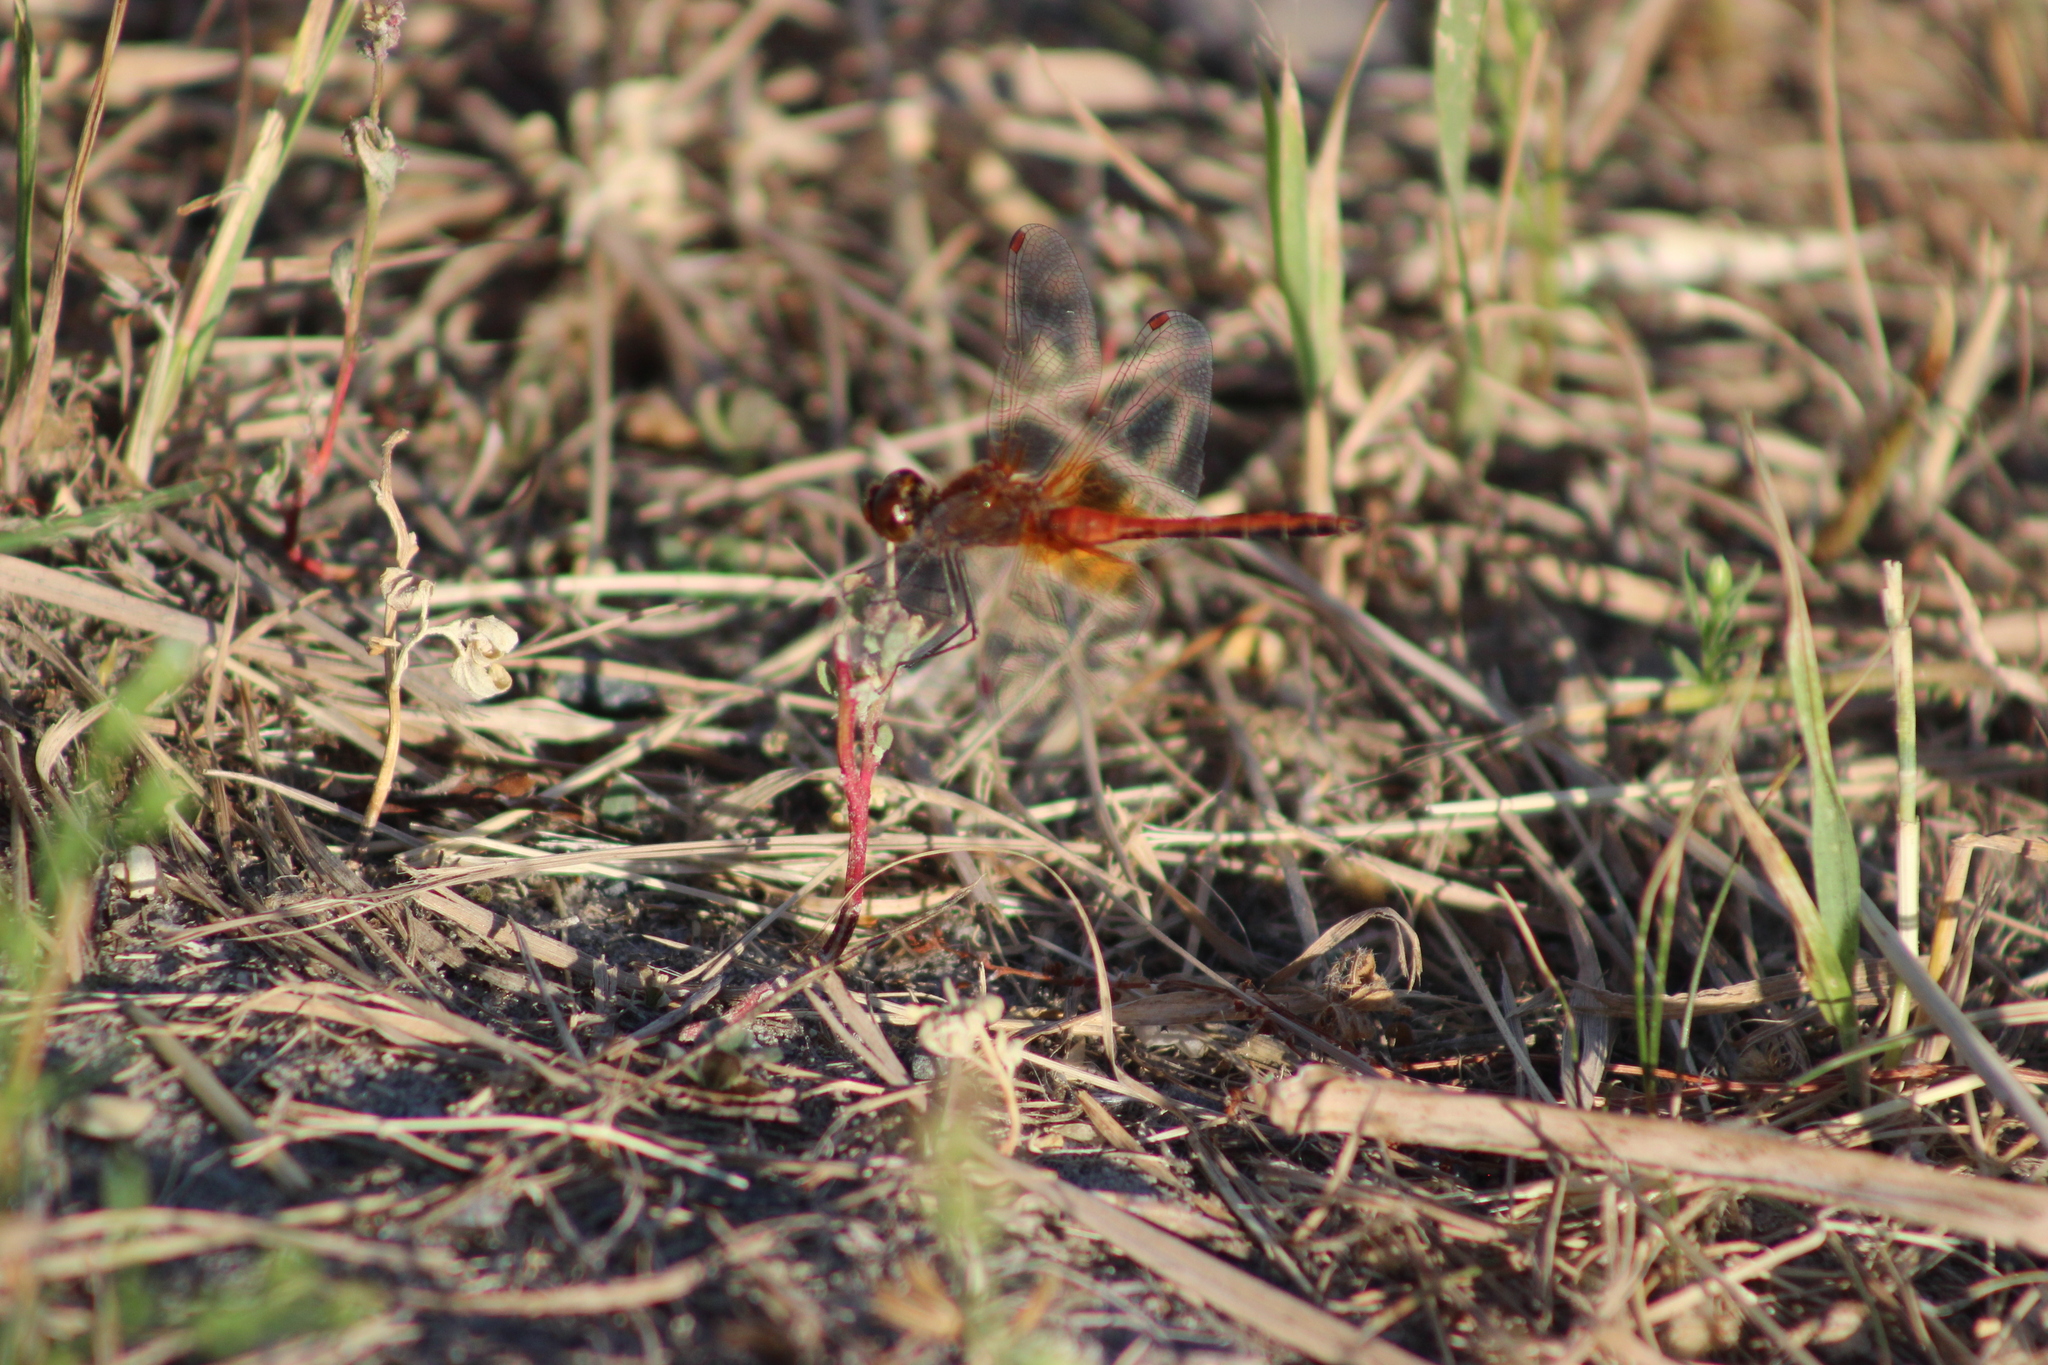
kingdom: Animalia
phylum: Arthropoda
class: Insecta
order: Odonata
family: Libellulidae
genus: Sympetrum
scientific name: Sympetrum flaveolum
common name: Yellow-winged darter
